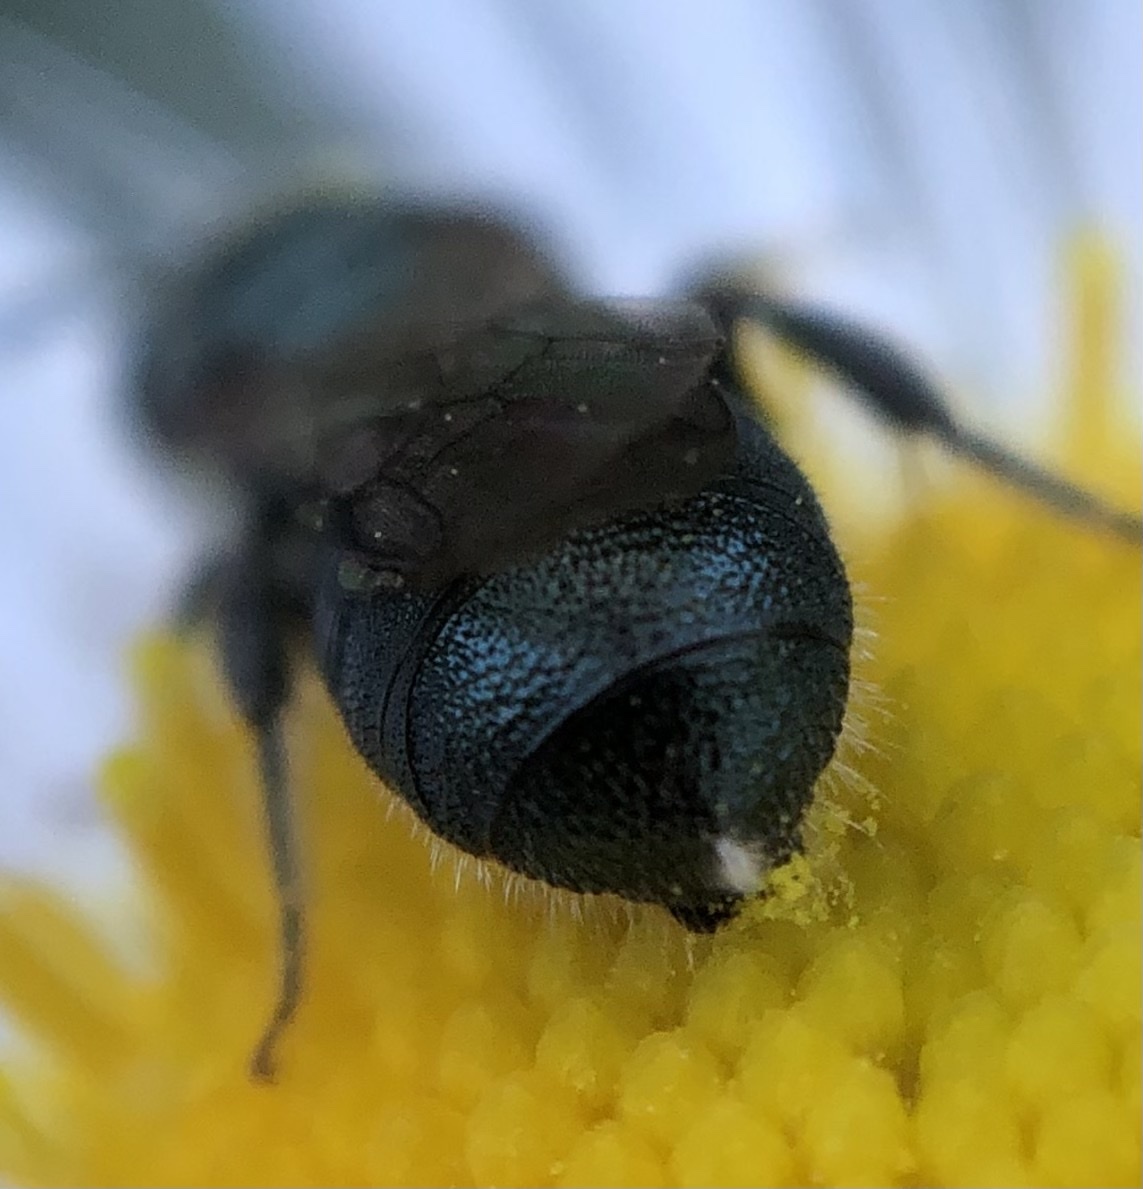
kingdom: Animalia
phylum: Arthropoda
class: Insecta
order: Hymenoptera
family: Apidae
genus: Ceratina
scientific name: Ceratina calcarata
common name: Spurred carpenter bee
